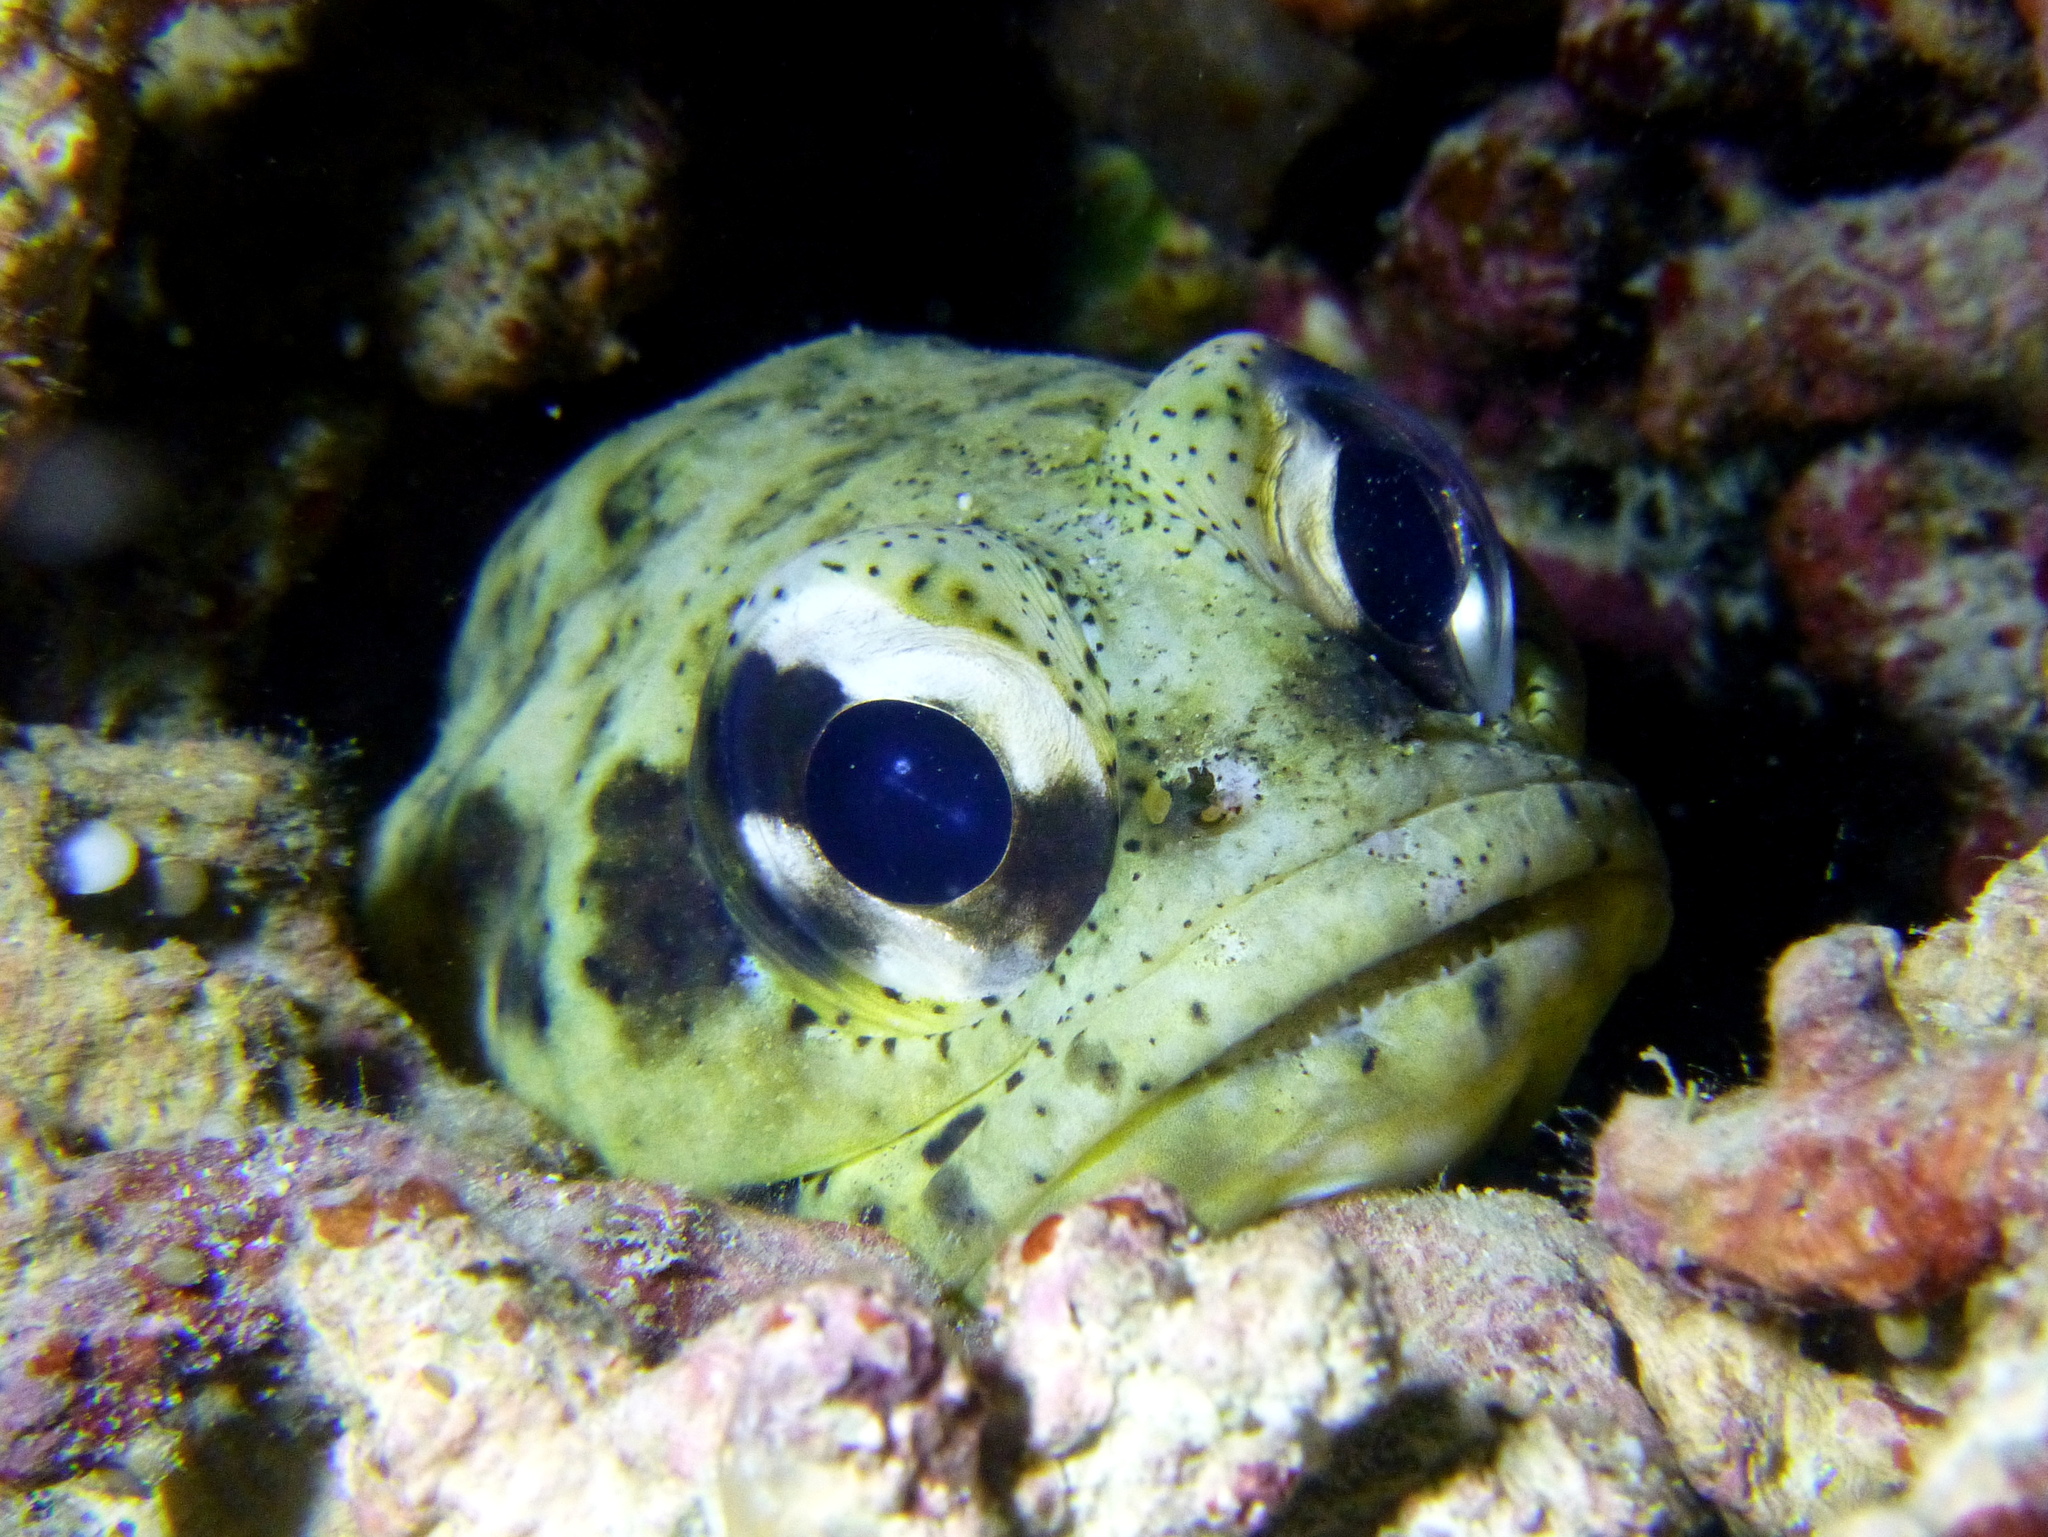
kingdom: Animalia
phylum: Chordata
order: Perciformes
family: Opistognathidae
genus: Opistognathus
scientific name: Opistognathus dendriticus
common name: Dendtric jawfish
